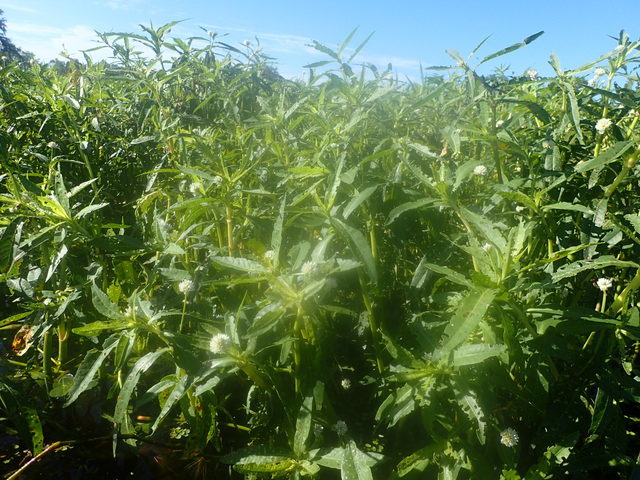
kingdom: Plantae
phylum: Tracheophyta
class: Magnoliopsida
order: Caryophyllales
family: Amaranthaceae
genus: Alternanthera
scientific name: Alternanthera philoxeroides
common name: Alligatorweed
